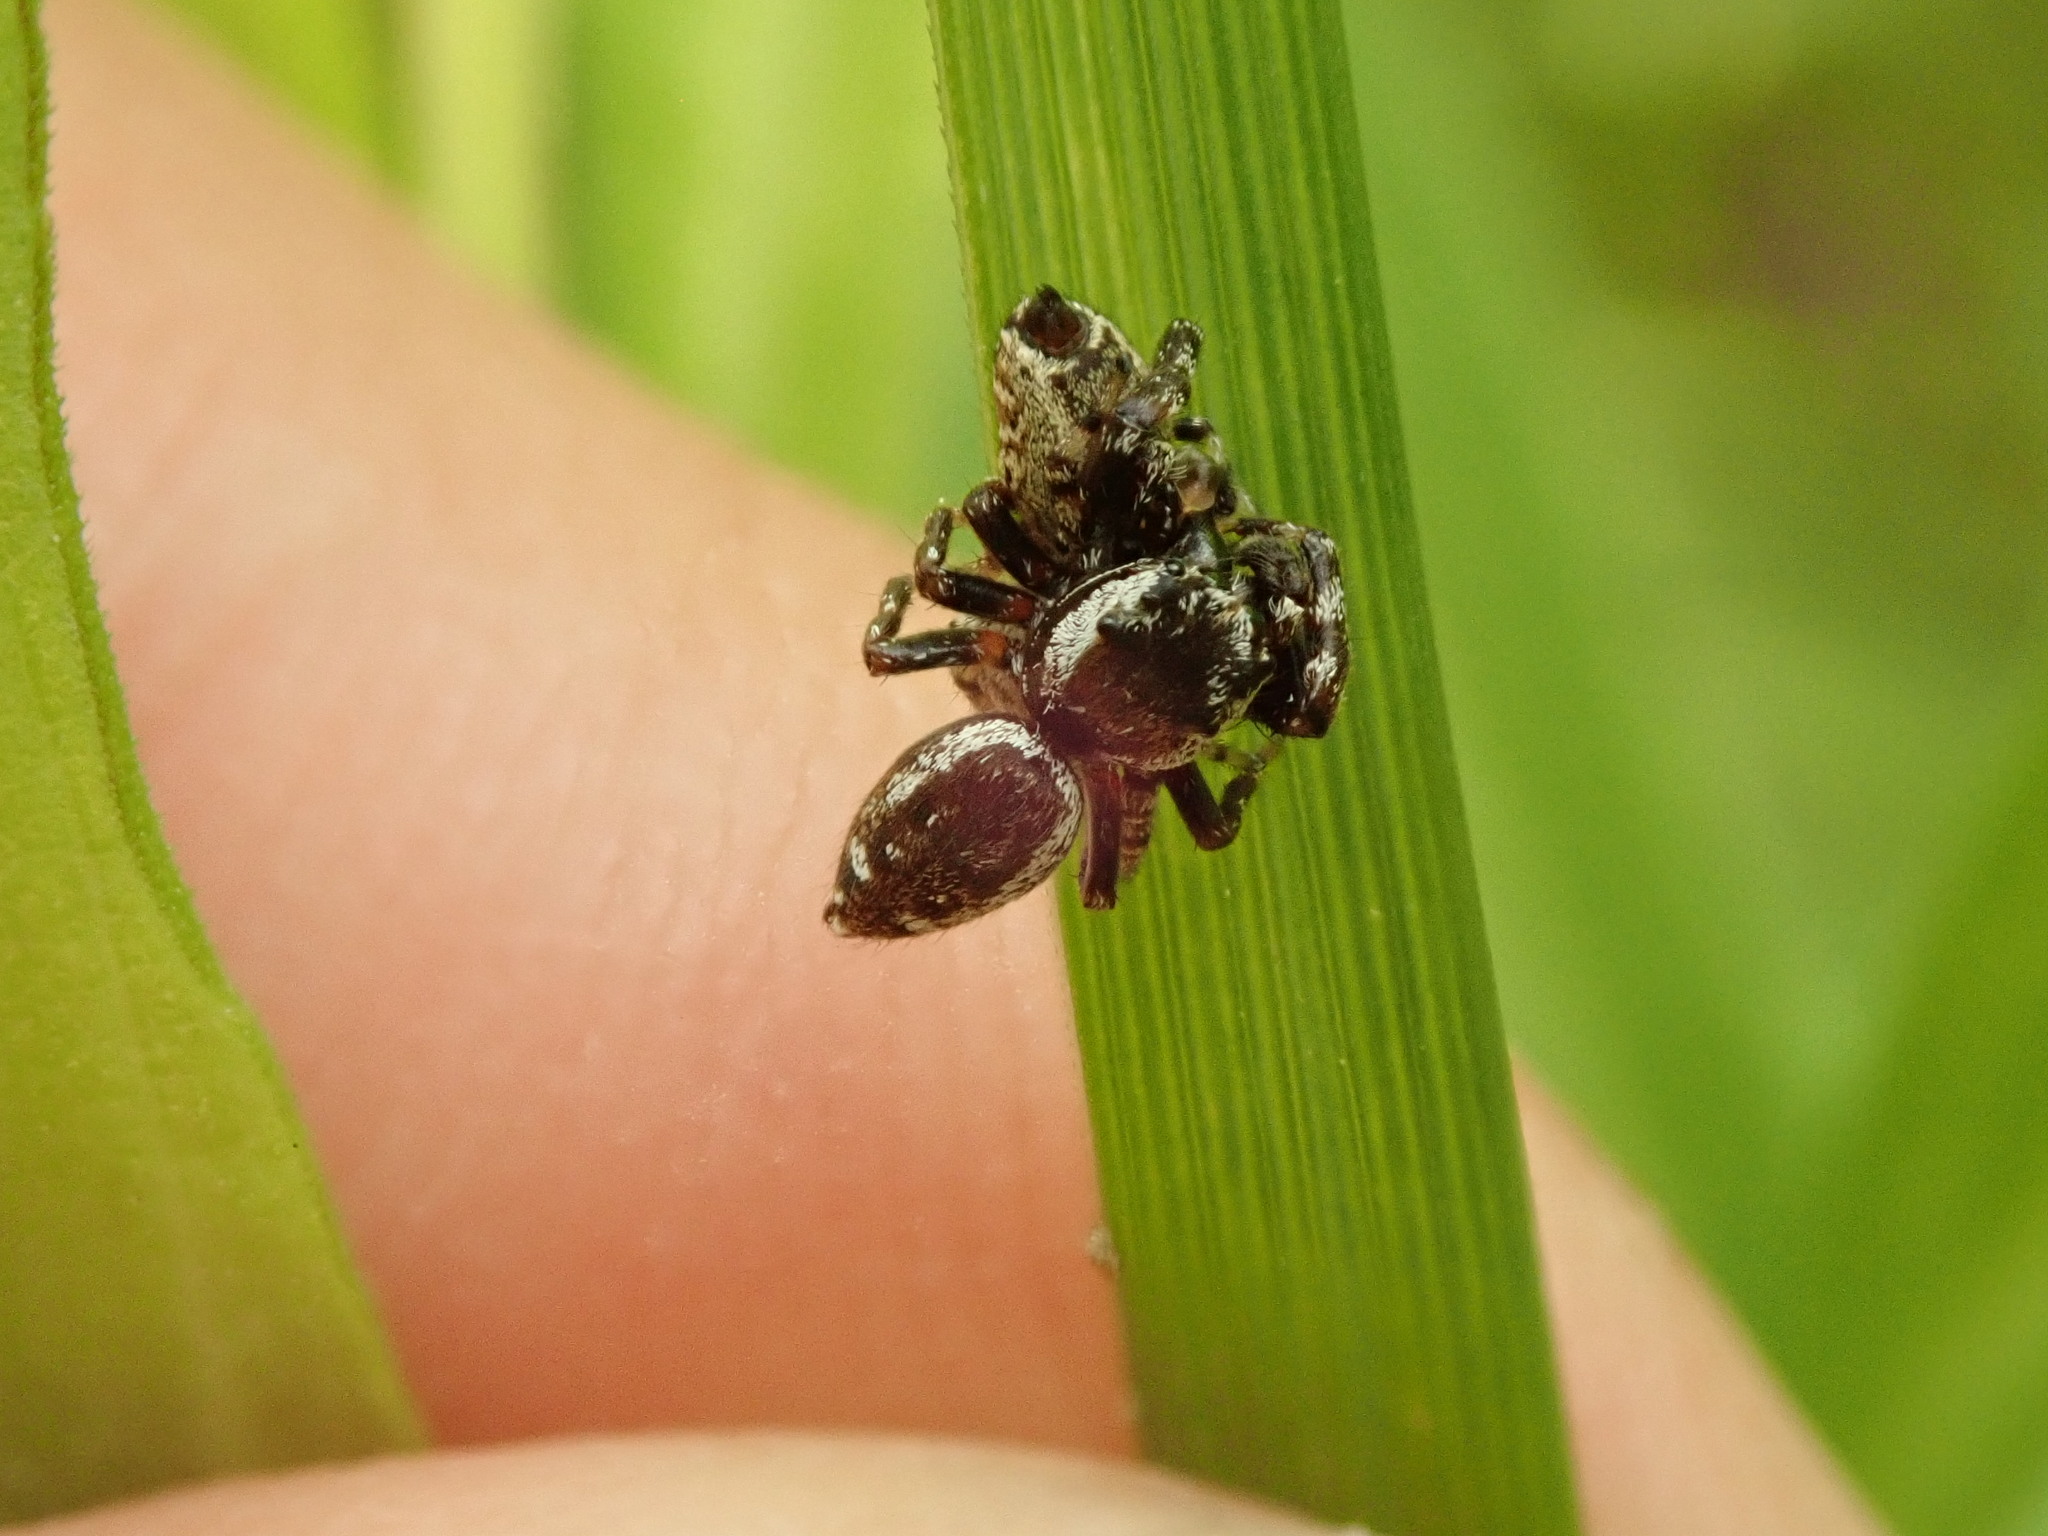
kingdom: Animalia
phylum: Arthropoda
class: Arachnida
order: Araneae
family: Salticidae
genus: Pelegrina
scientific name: Pelegrina galathea
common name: Jumping spiders
